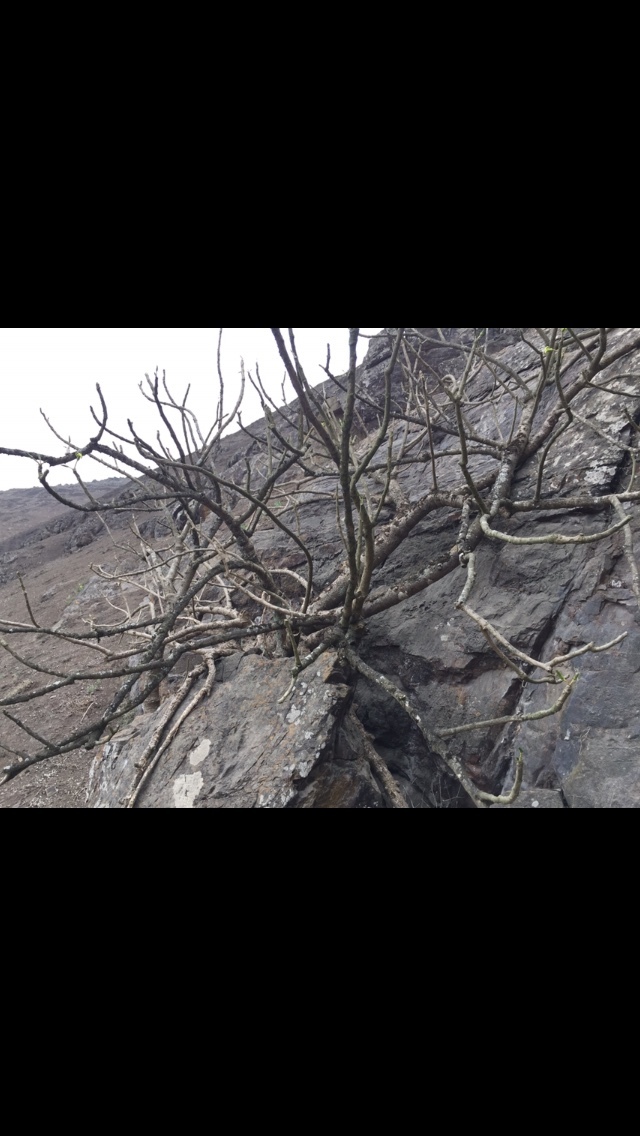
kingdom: Plantae
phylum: Tracheophyta
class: Magnoliopsida
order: Brassicales
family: Caricaceae
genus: Vasconcellea
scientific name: Vasconcellea candicans
